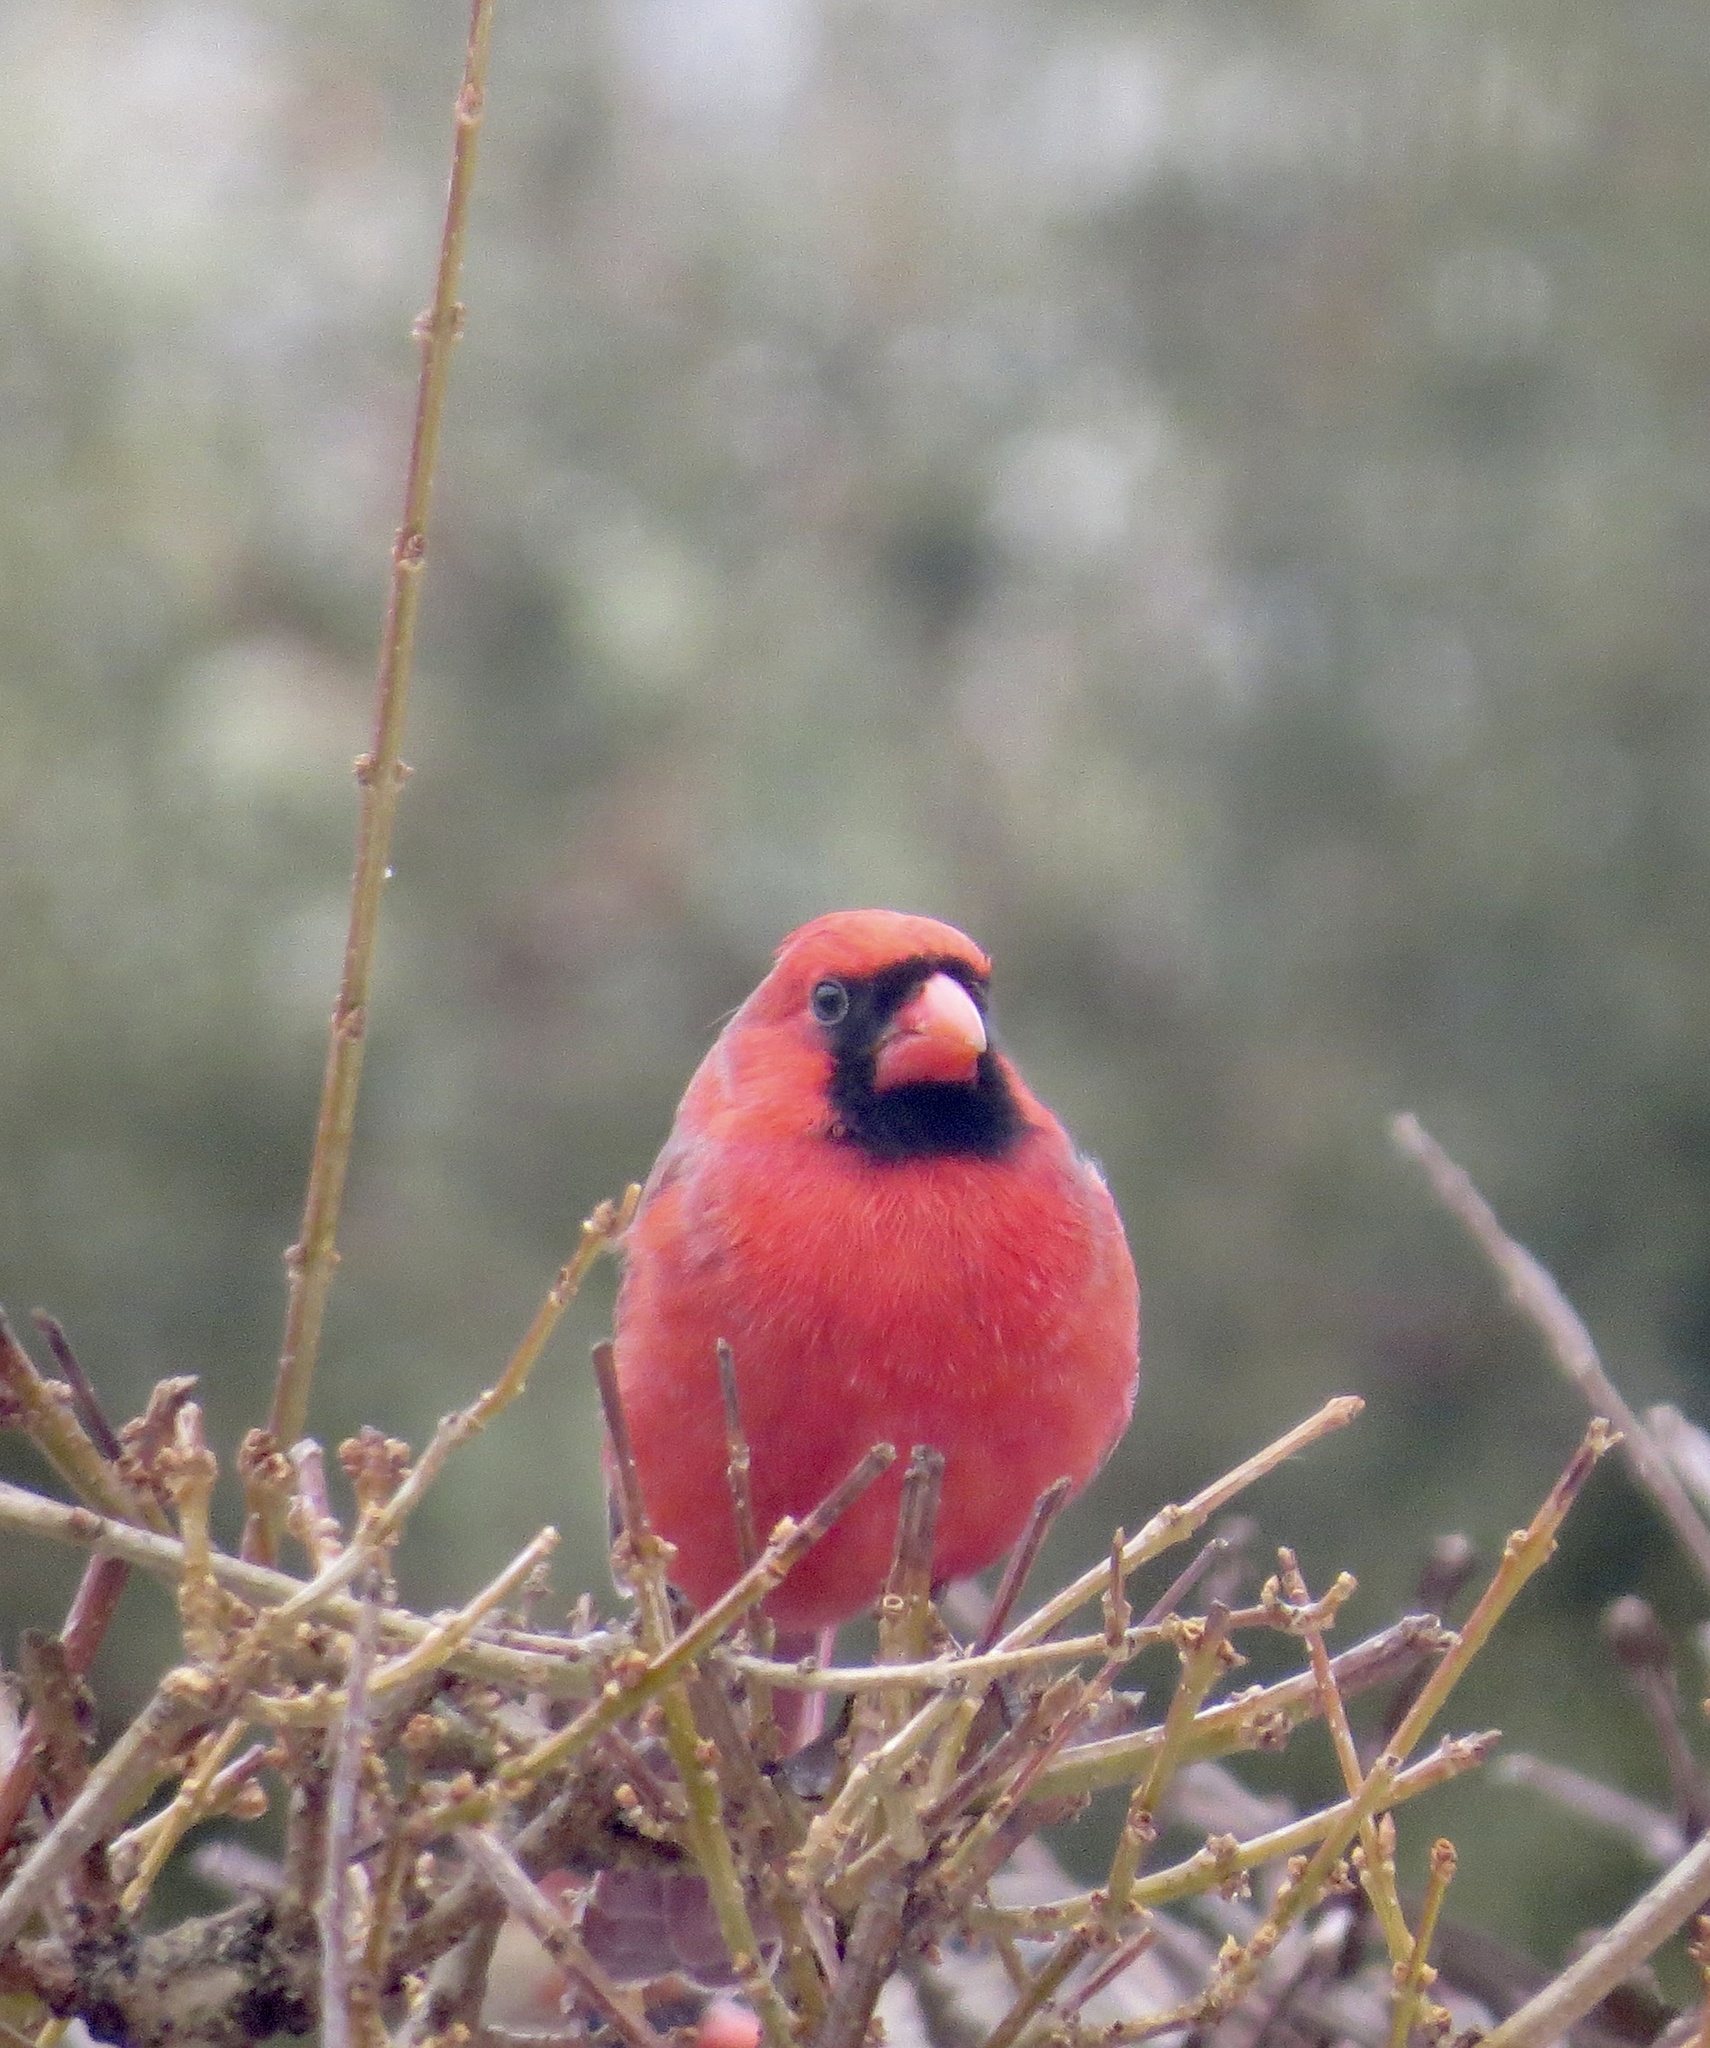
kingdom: Animalia
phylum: Chordata
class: Aves
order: Passeriformes
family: Cardinalidae
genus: Cardinalis
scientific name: Cardinalis cardinalis
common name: Northern cardinal
